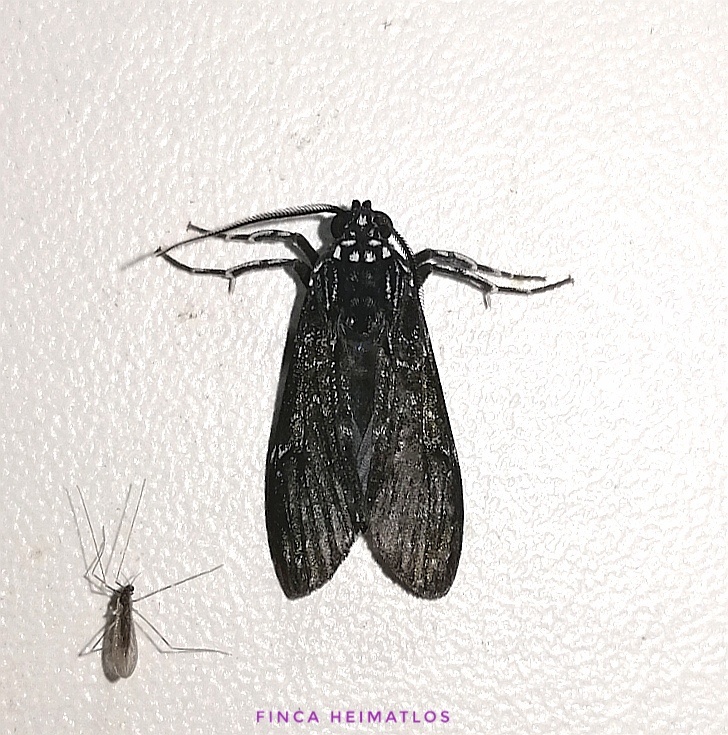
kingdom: Animalia
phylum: Arthropoda
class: Insecta
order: Lepidoptera
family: Erebidae
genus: Eucereon
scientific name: Eucereon obscura
